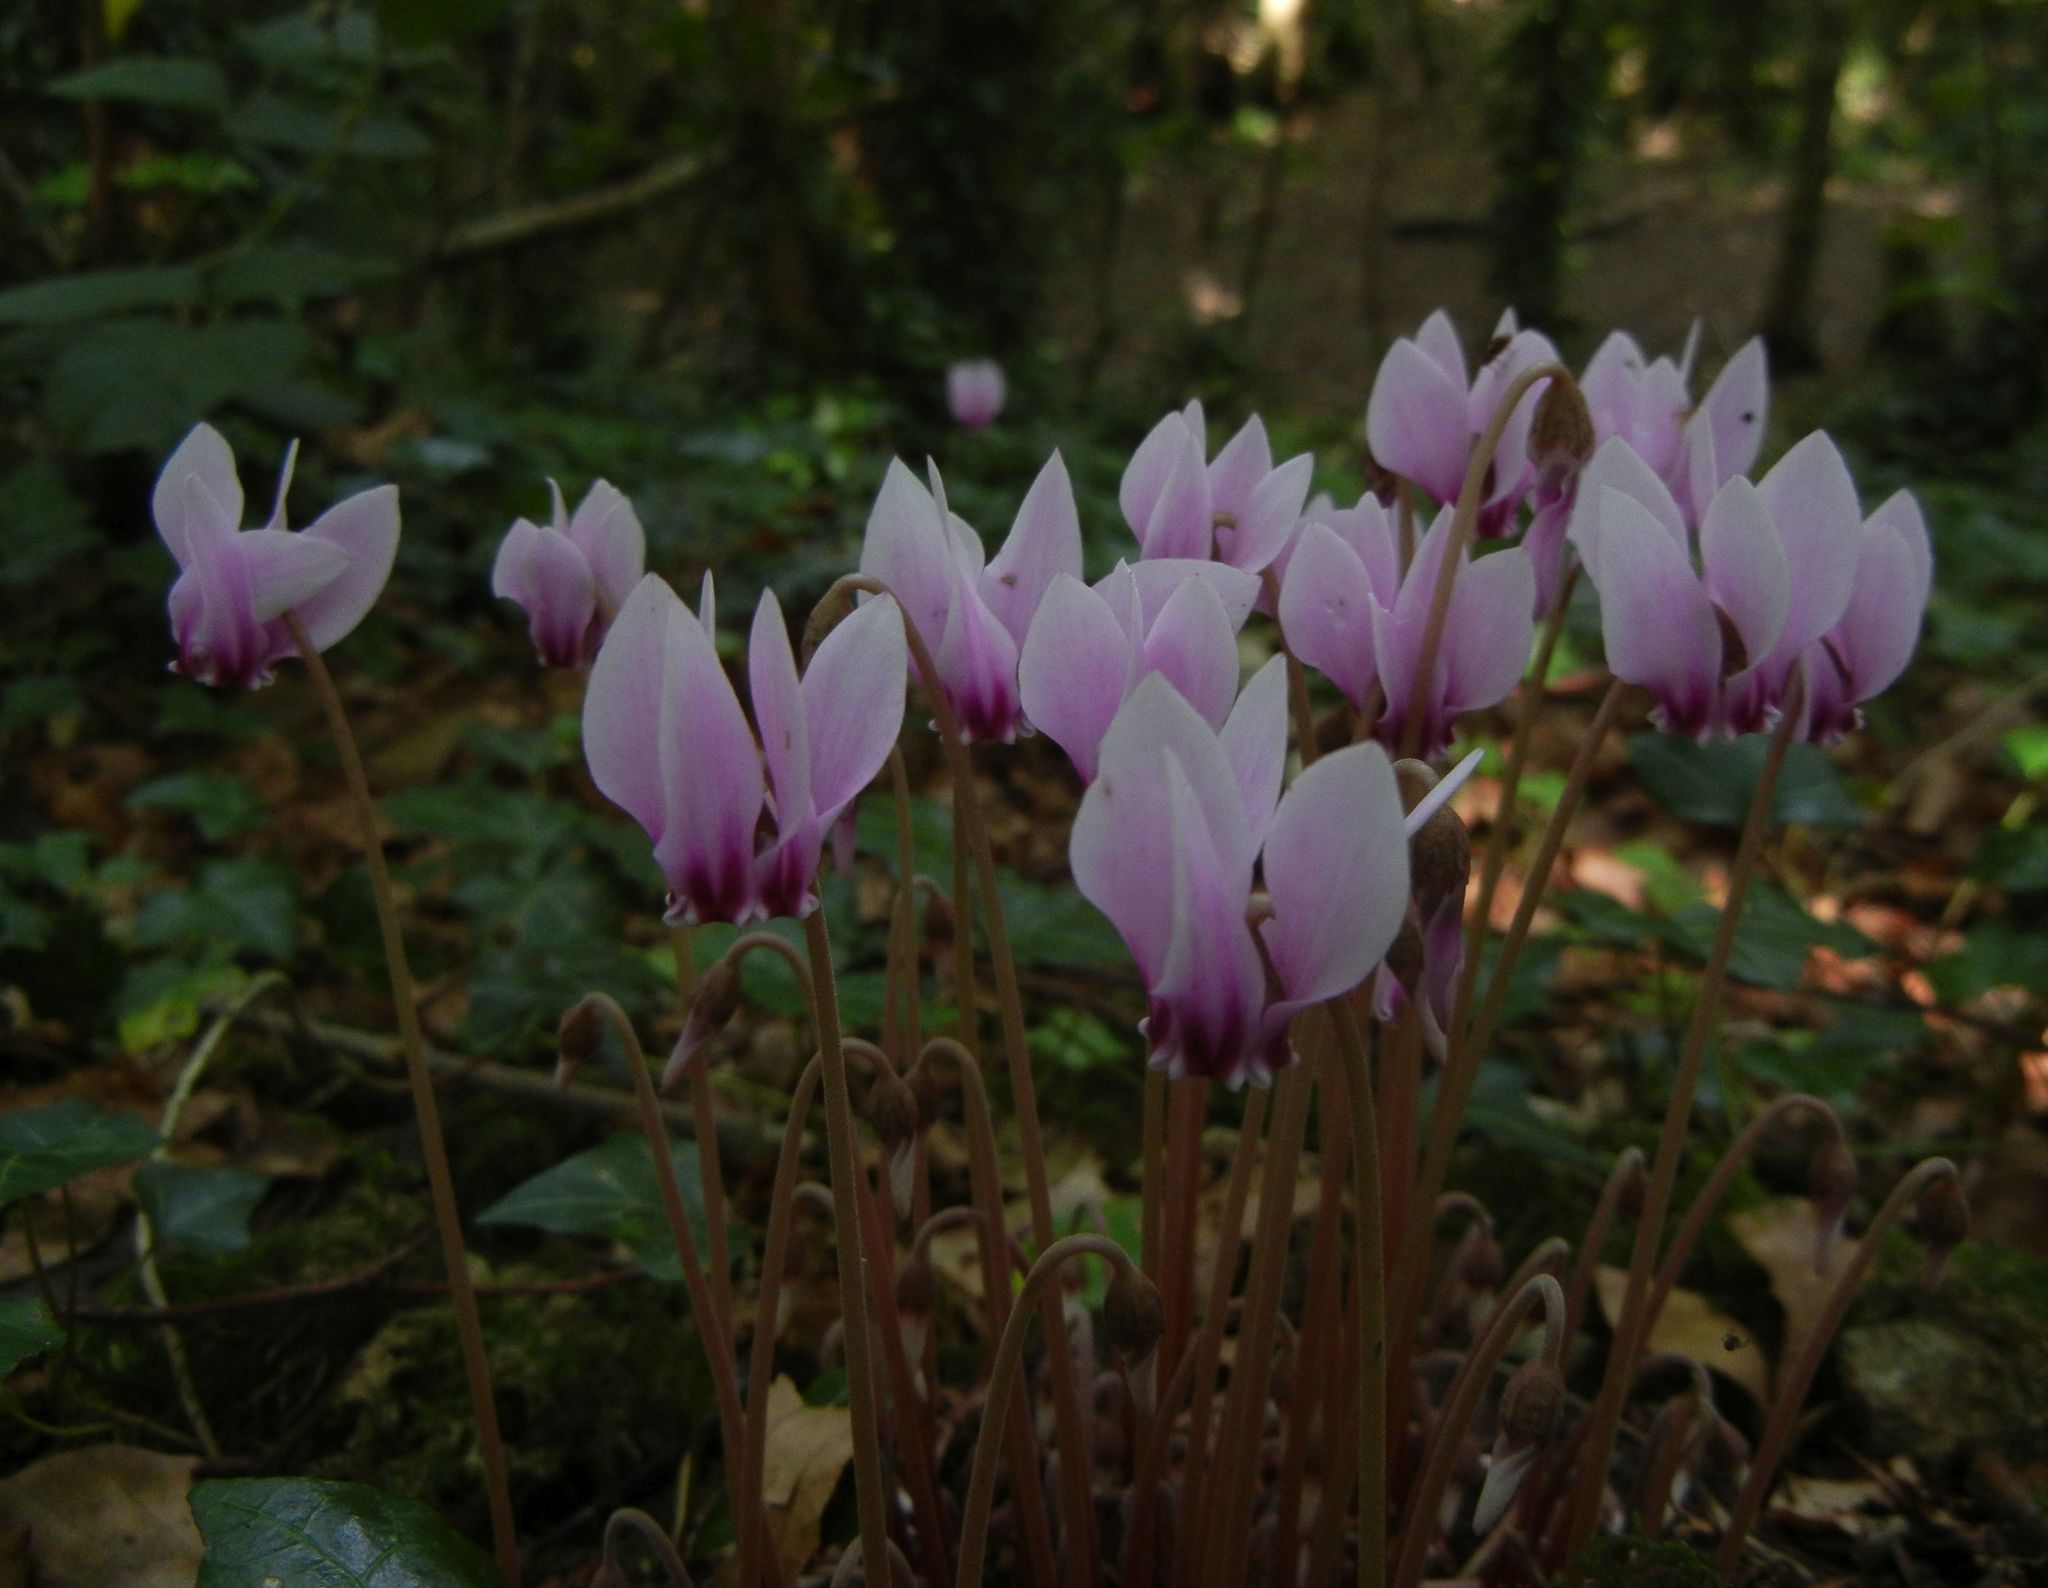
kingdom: Plantae
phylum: Tracheophyta
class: Magnoliopsida
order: Ericales
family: Primulaceae
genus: Cyclamen
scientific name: Cyclamen hederifolium
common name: Sowbread
